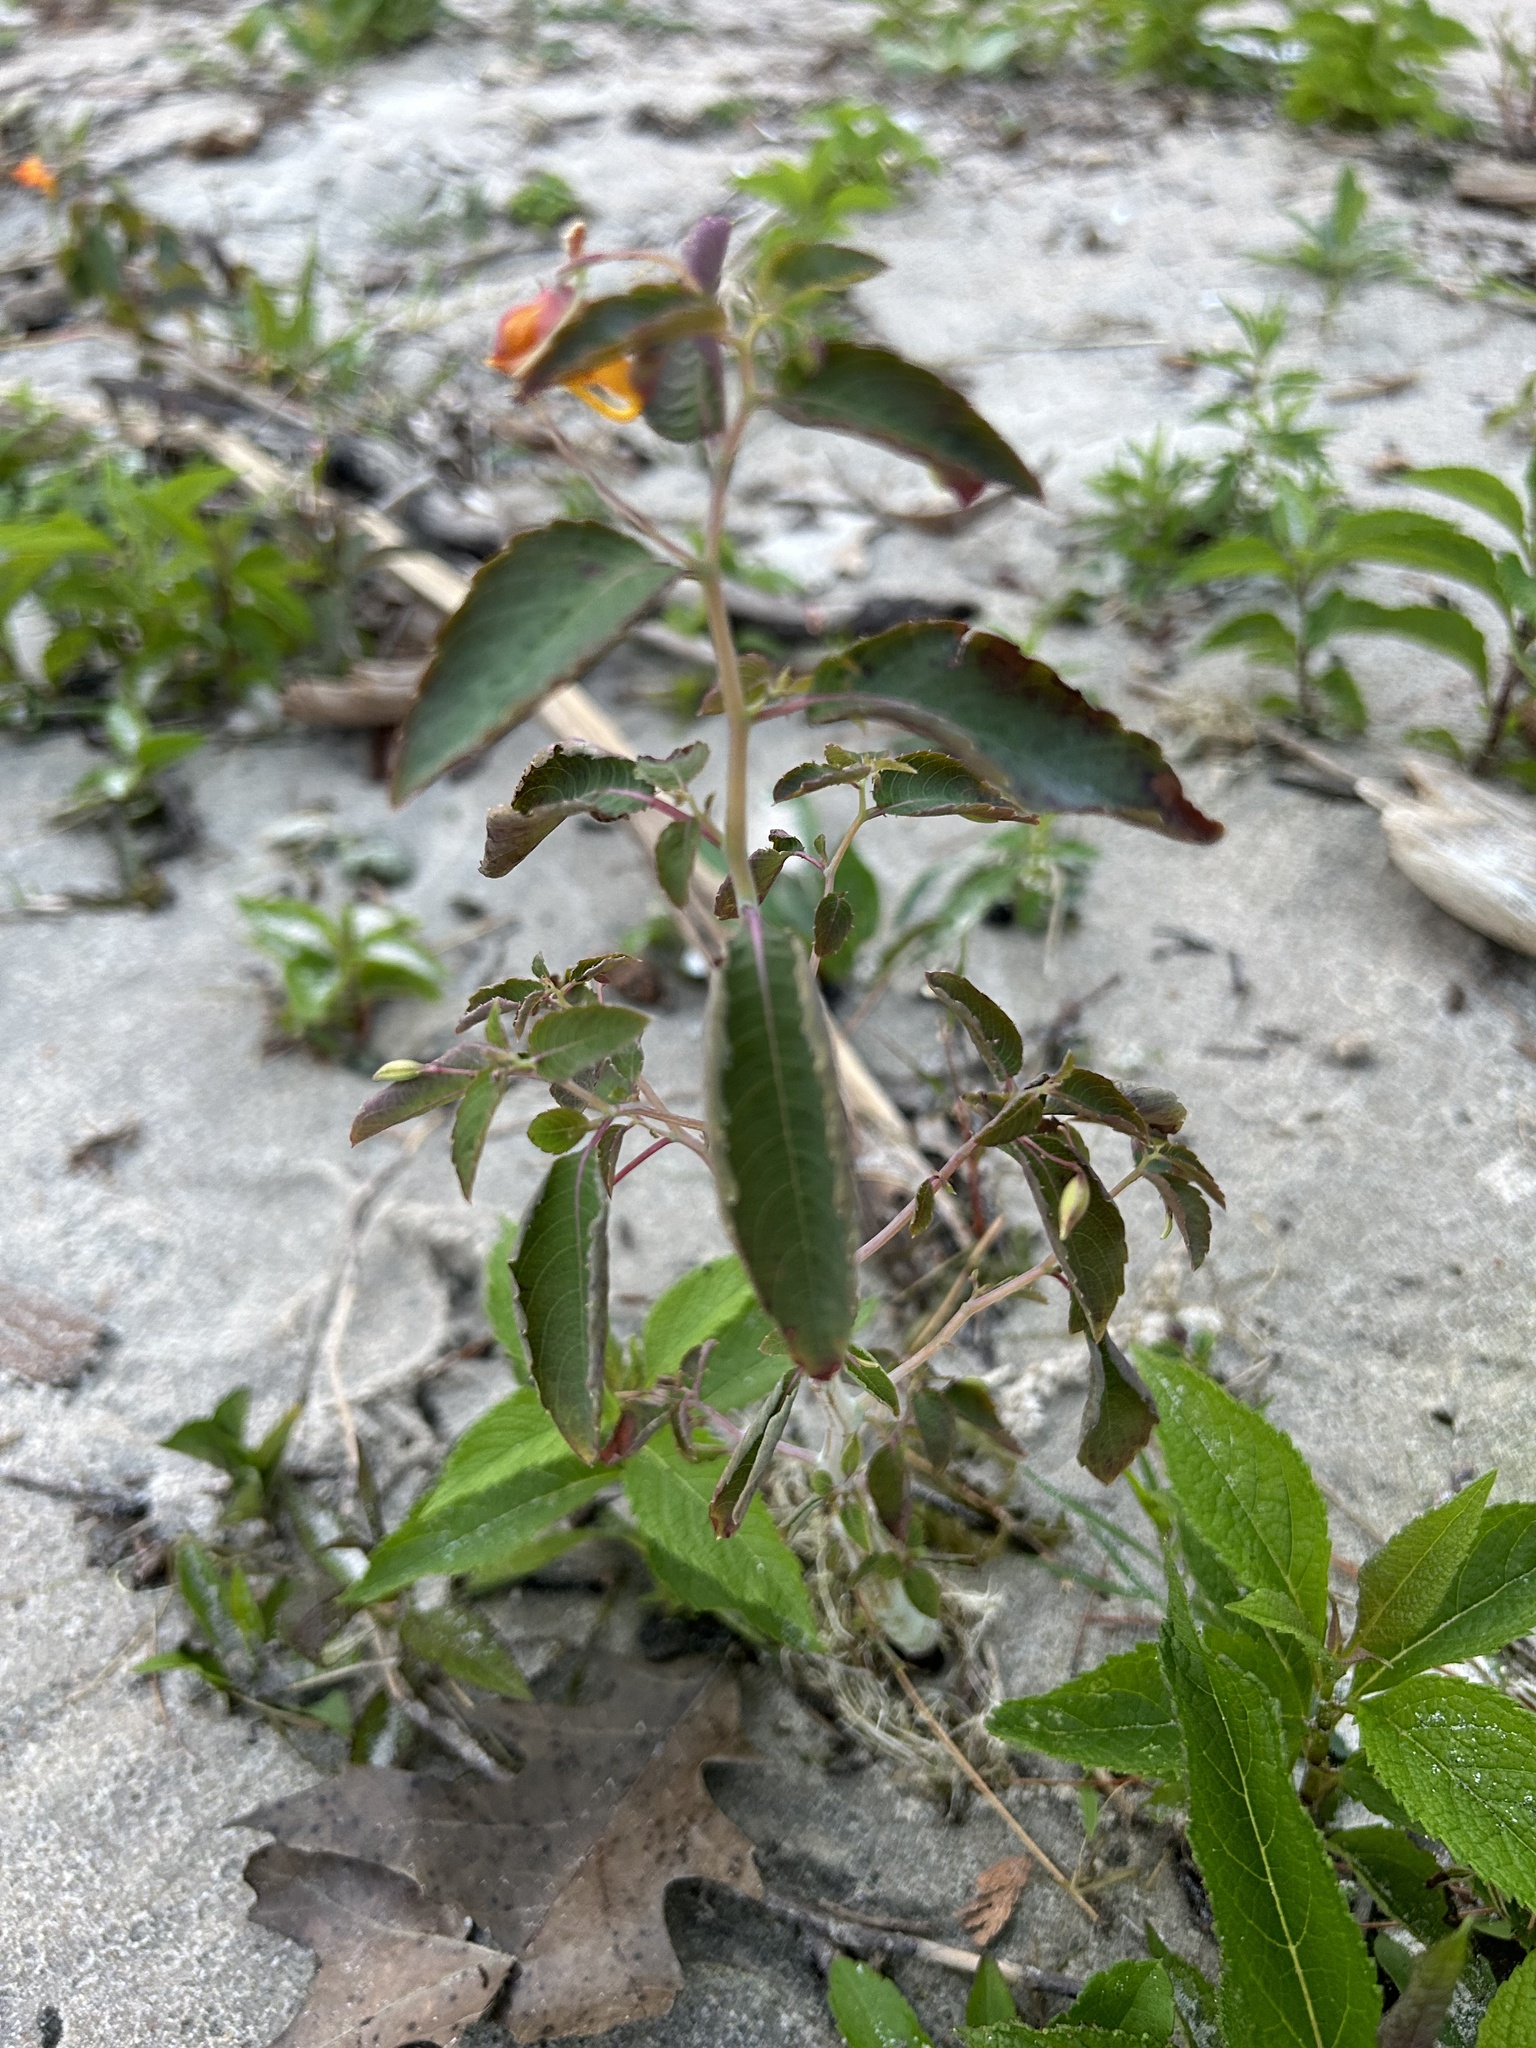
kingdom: Plantae
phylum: Tracheophyta
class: Magnoliopsida
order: Ericales
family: Balsaminaceae
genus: Impatiens
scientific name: Impatiens capensis
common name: Orange balsam
